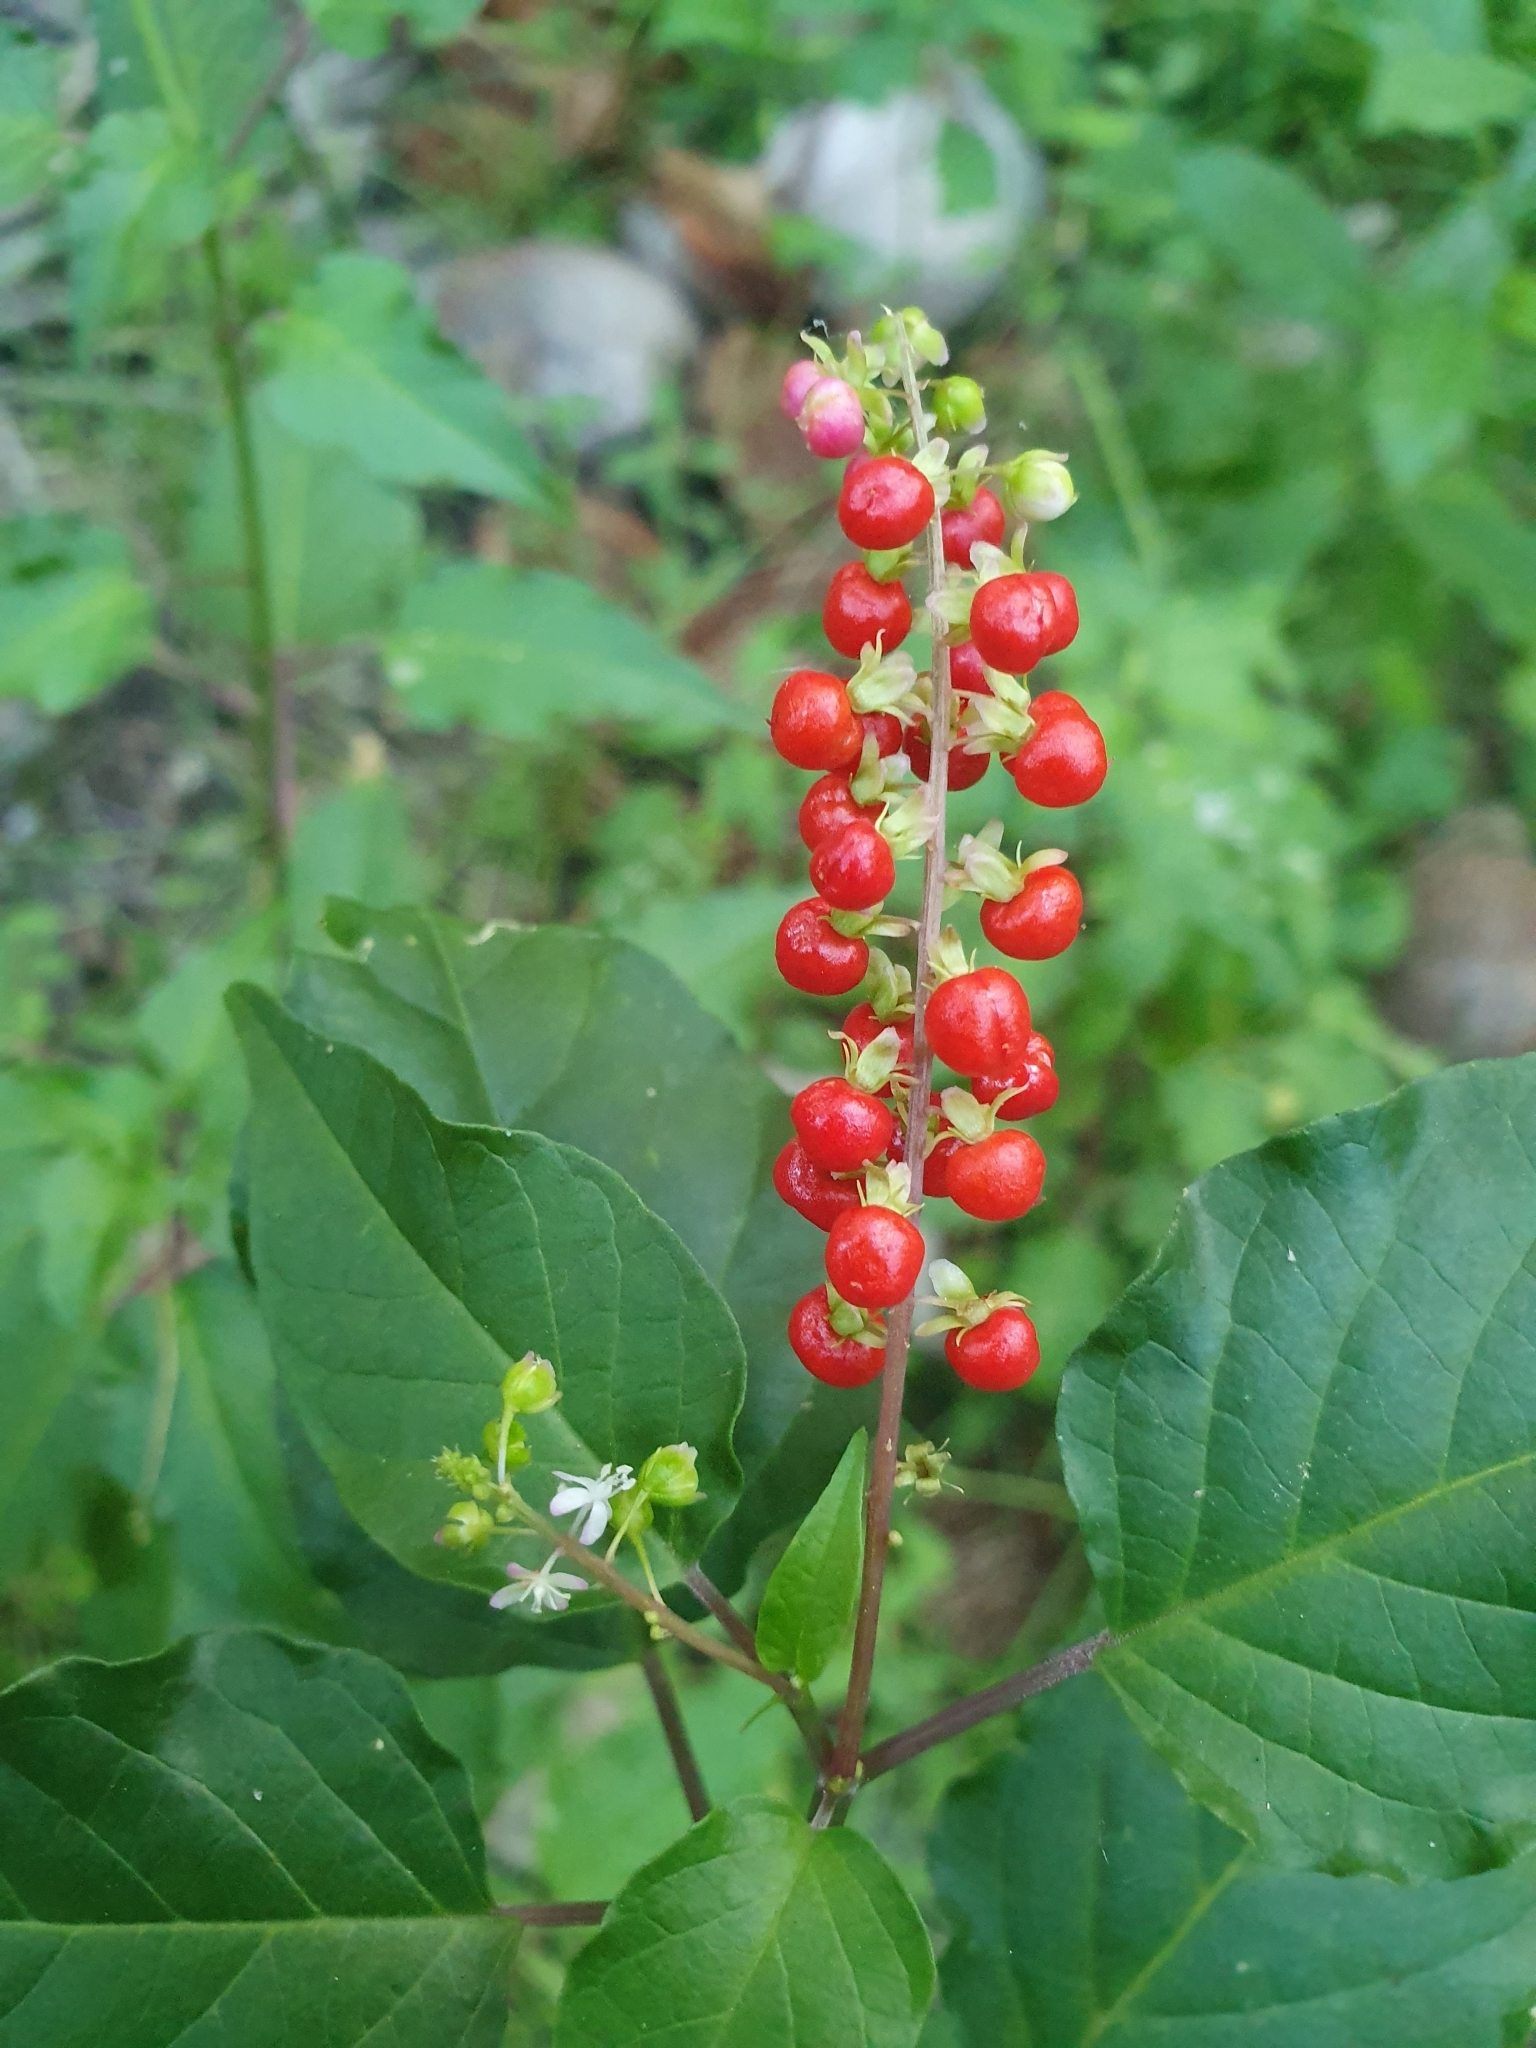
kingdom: Plantae
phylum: Tracheophyta
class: Magnoliopsida
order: Caryophyllales
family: Phytolaccaceae
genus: Rivina
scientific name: Rivina humilis
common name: Rougeplant
